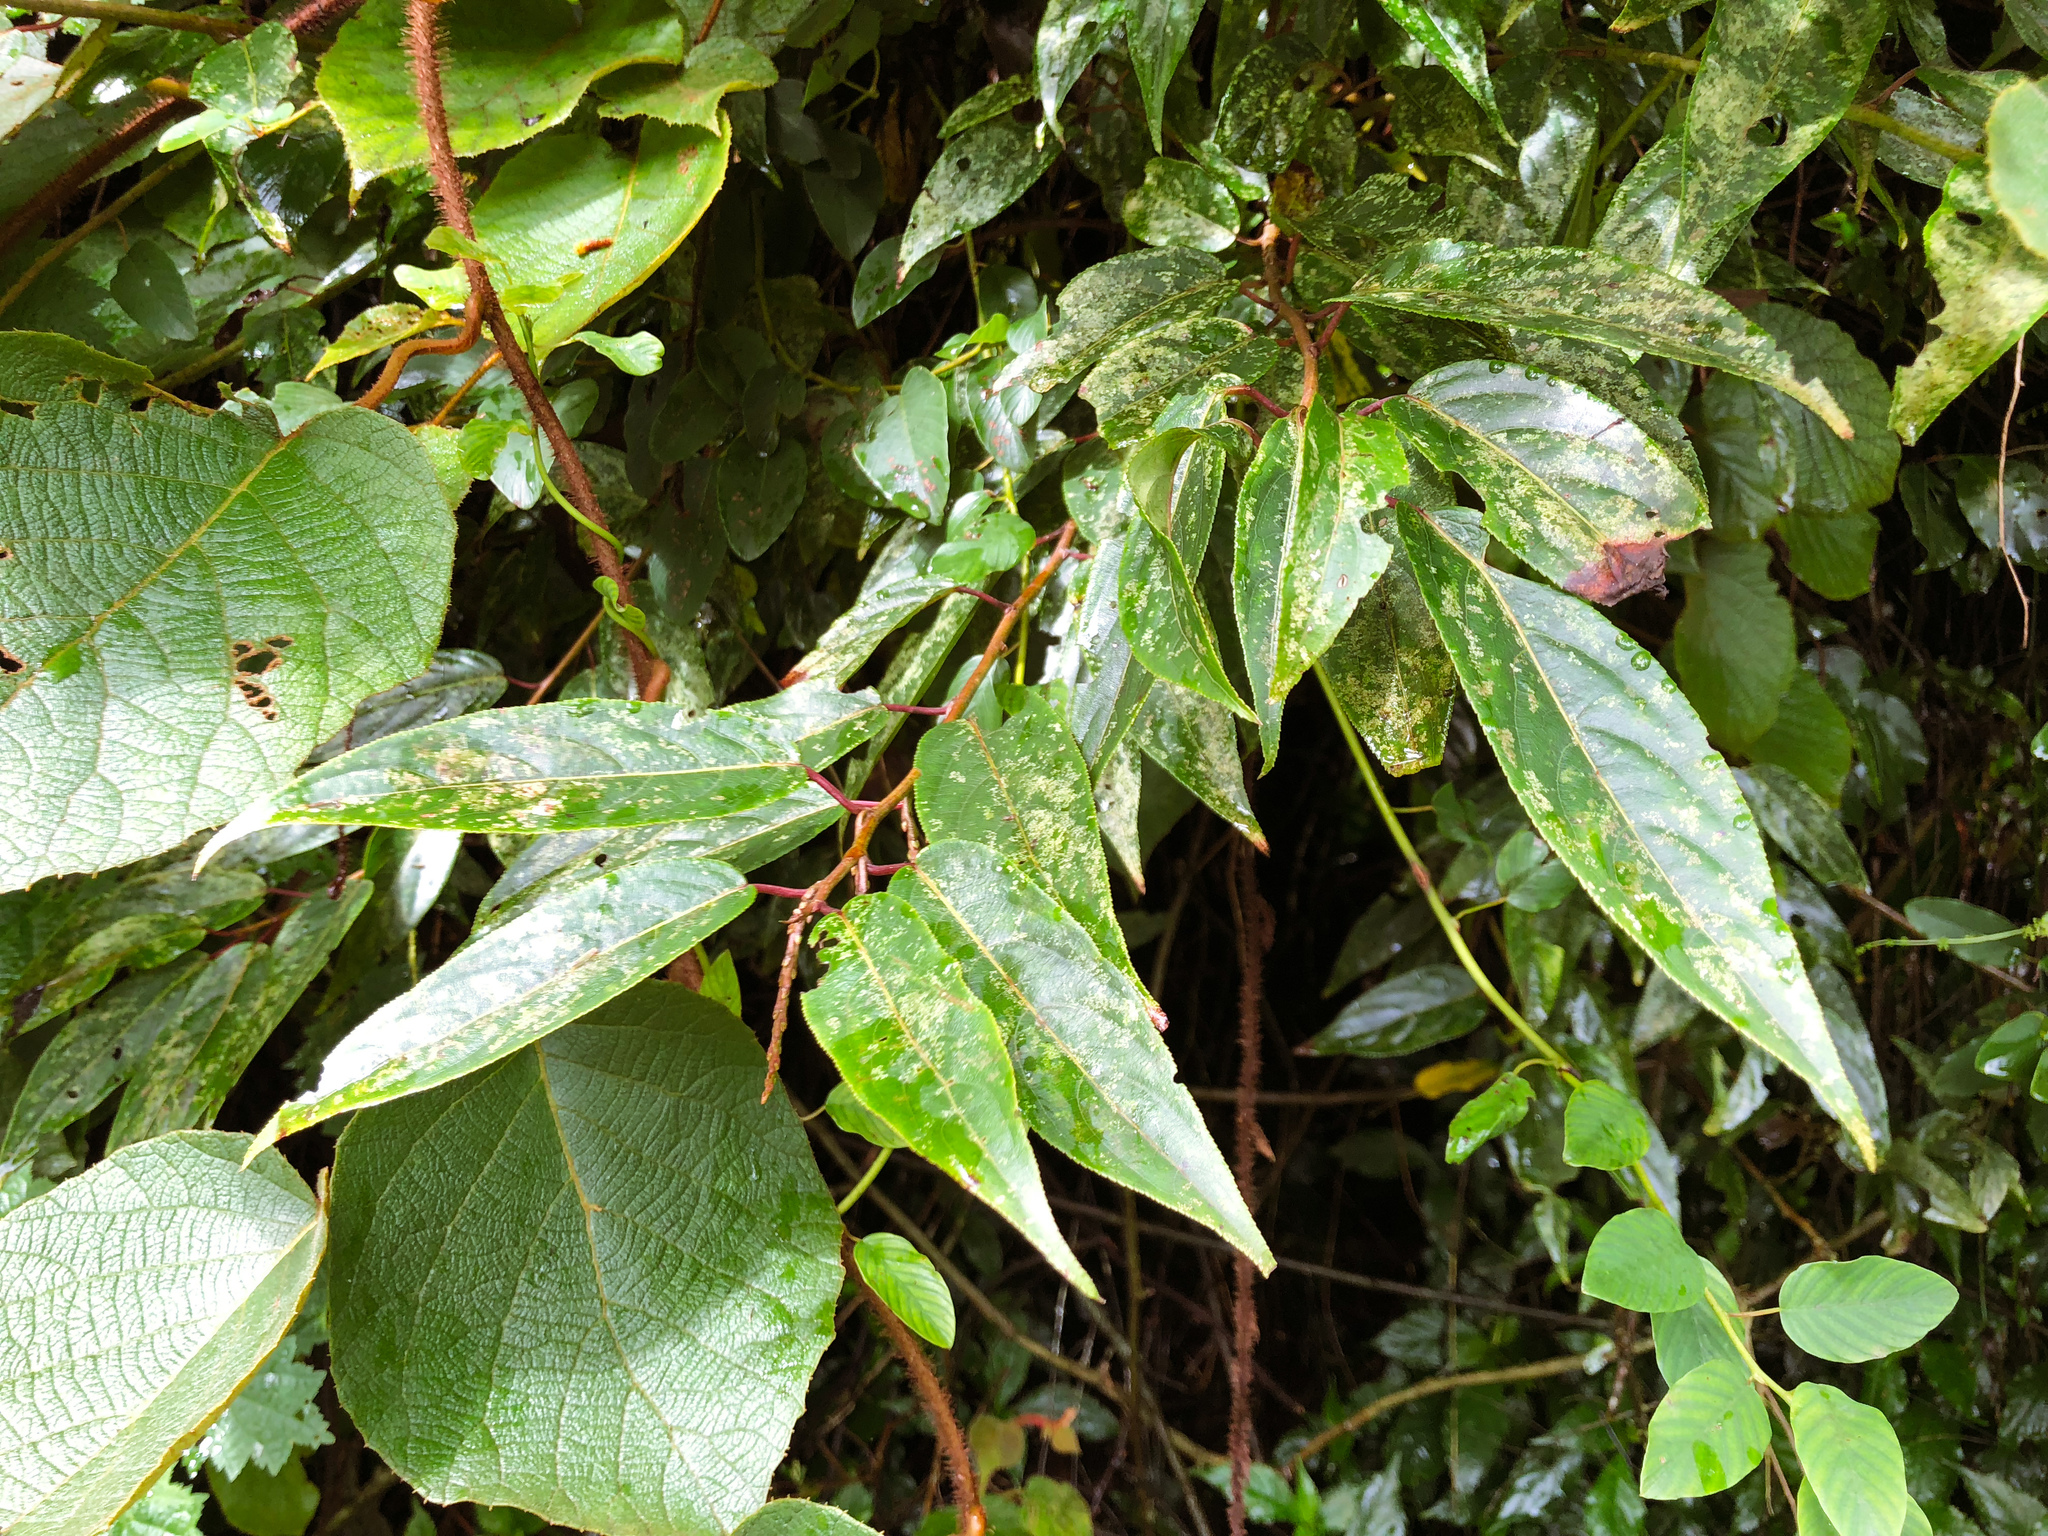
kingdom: Plantae
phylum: Tracheophyta
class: Magnoliopsida
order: Crossosomatales
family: Stachyuraceae
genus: Stachyurus
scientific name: Stachyurus himalaicus
